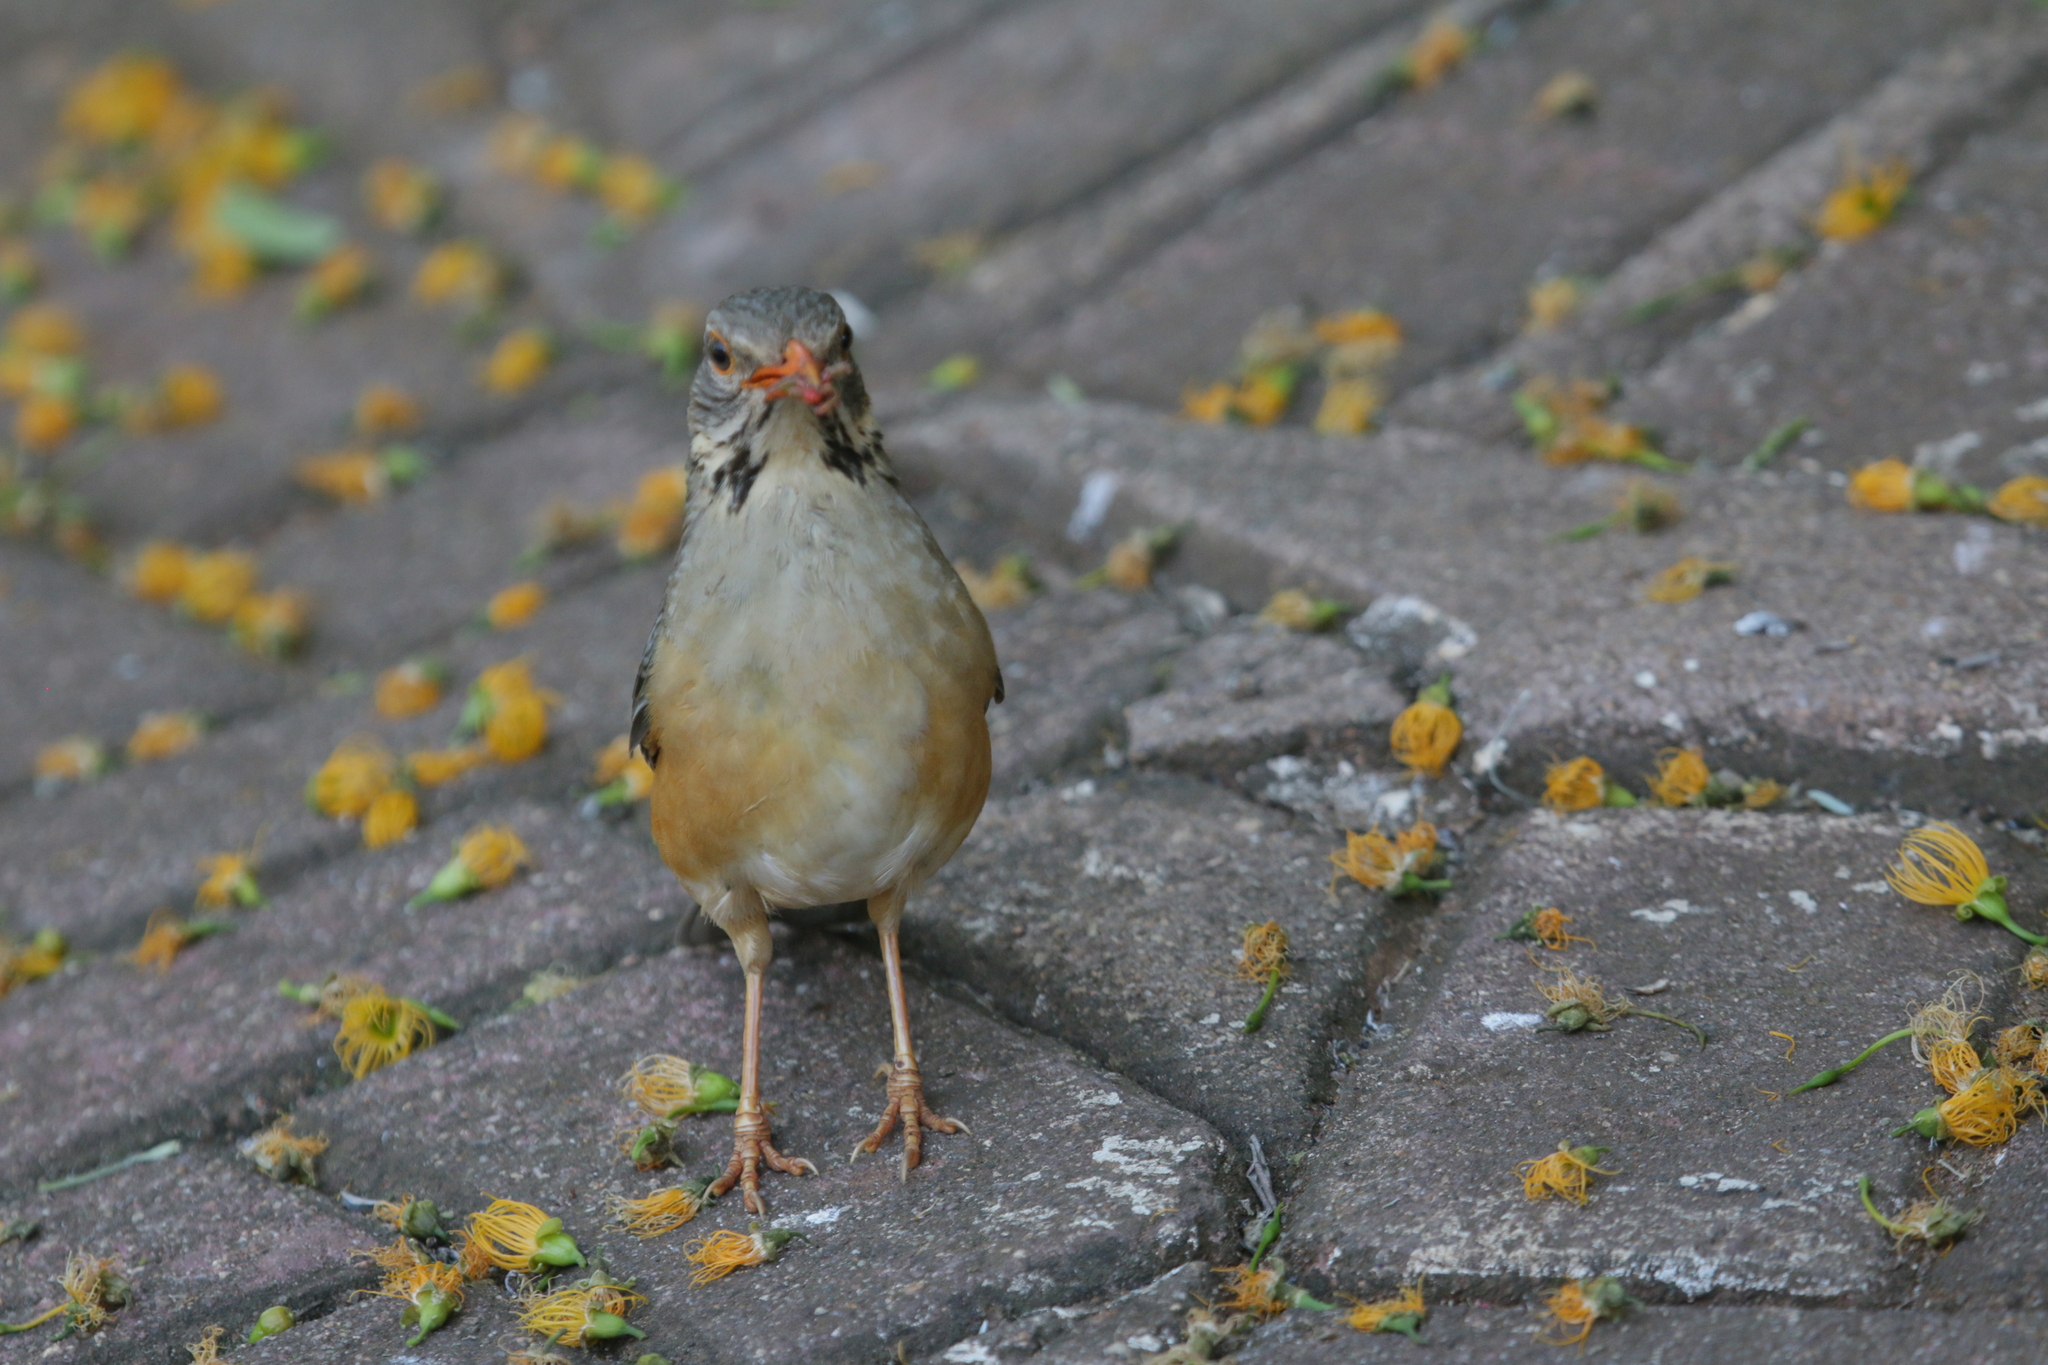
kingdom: Animalia
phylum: Chordata
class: Aves
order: Passeriformes
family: Turdidae
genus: Turdus
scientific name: Turdus libonyana
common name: Kurrichane thrush
